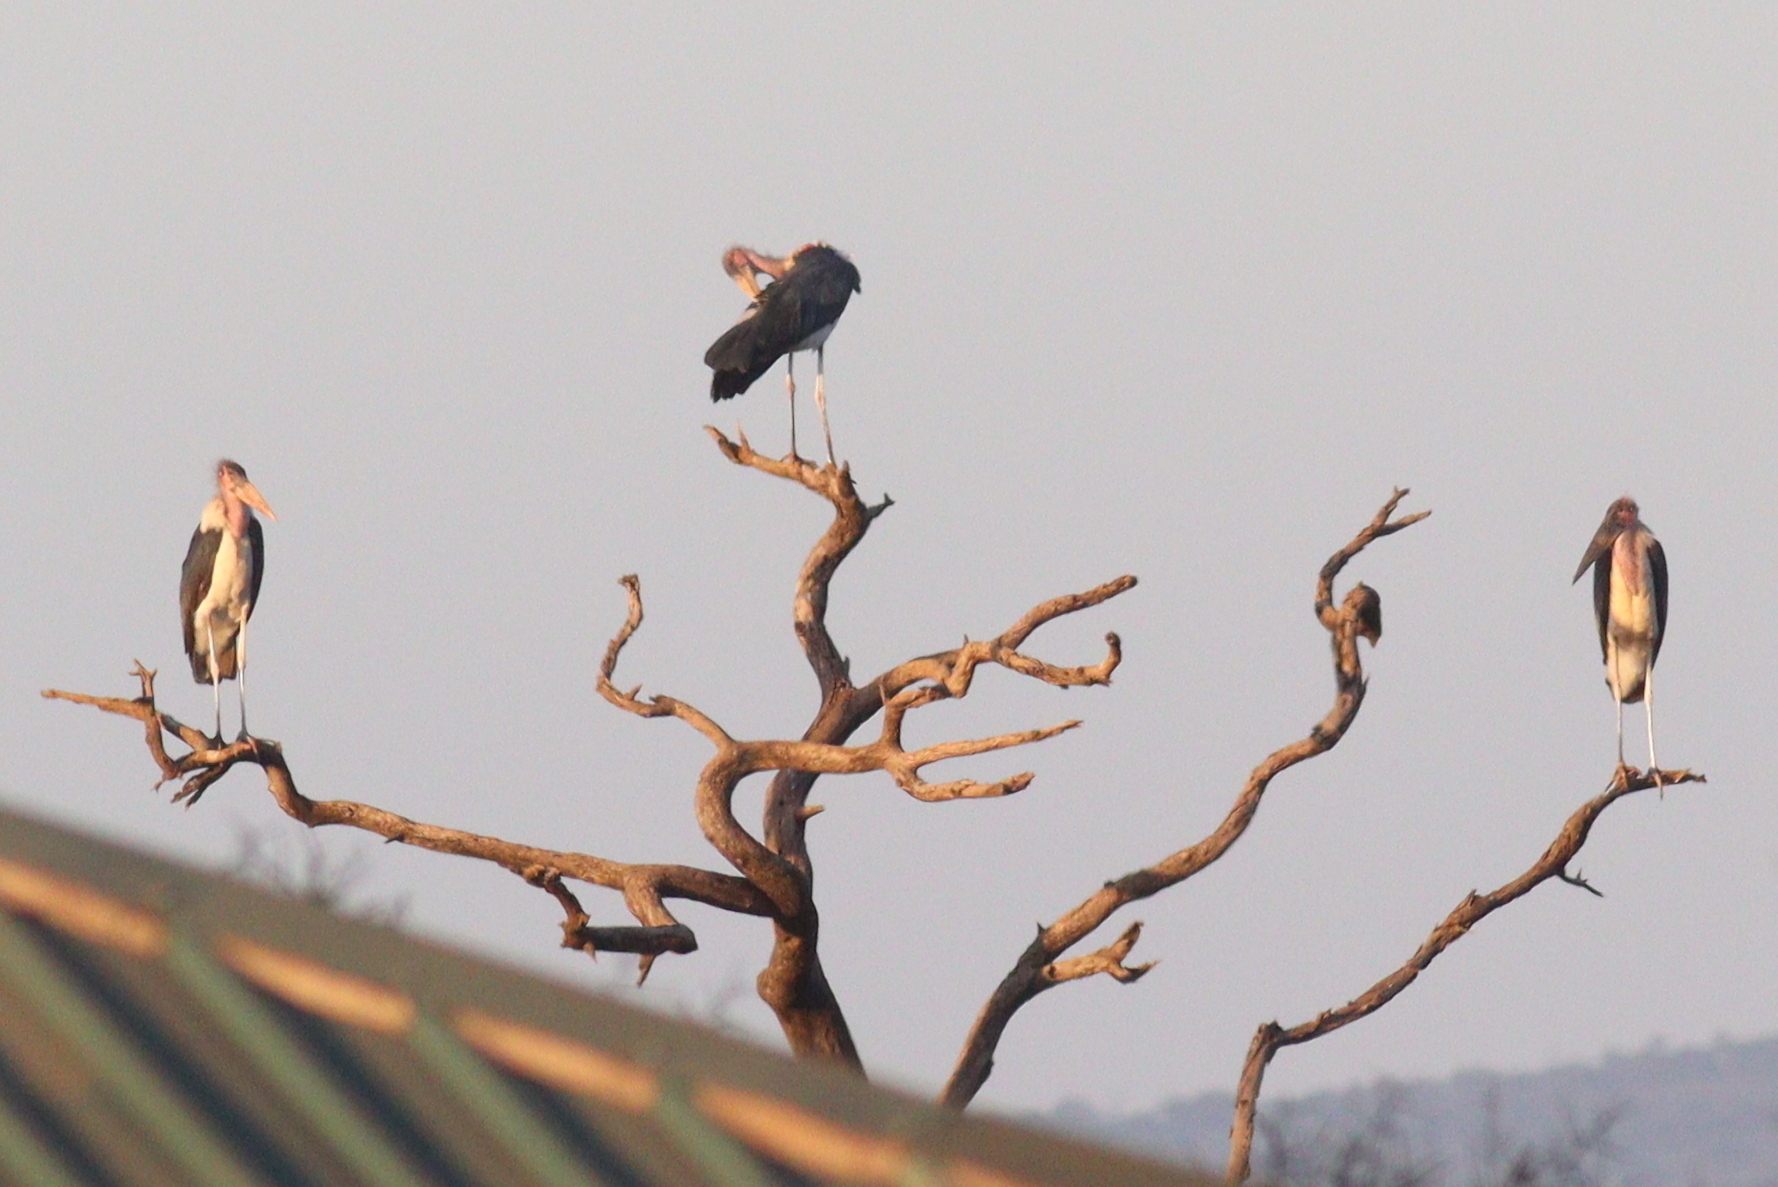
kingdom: Animalia
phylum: Chordata
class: Aves
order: Ciconiiformes
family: Ciconiidae
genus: Leptoptilos
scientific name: Leptoptilos crumenifer
